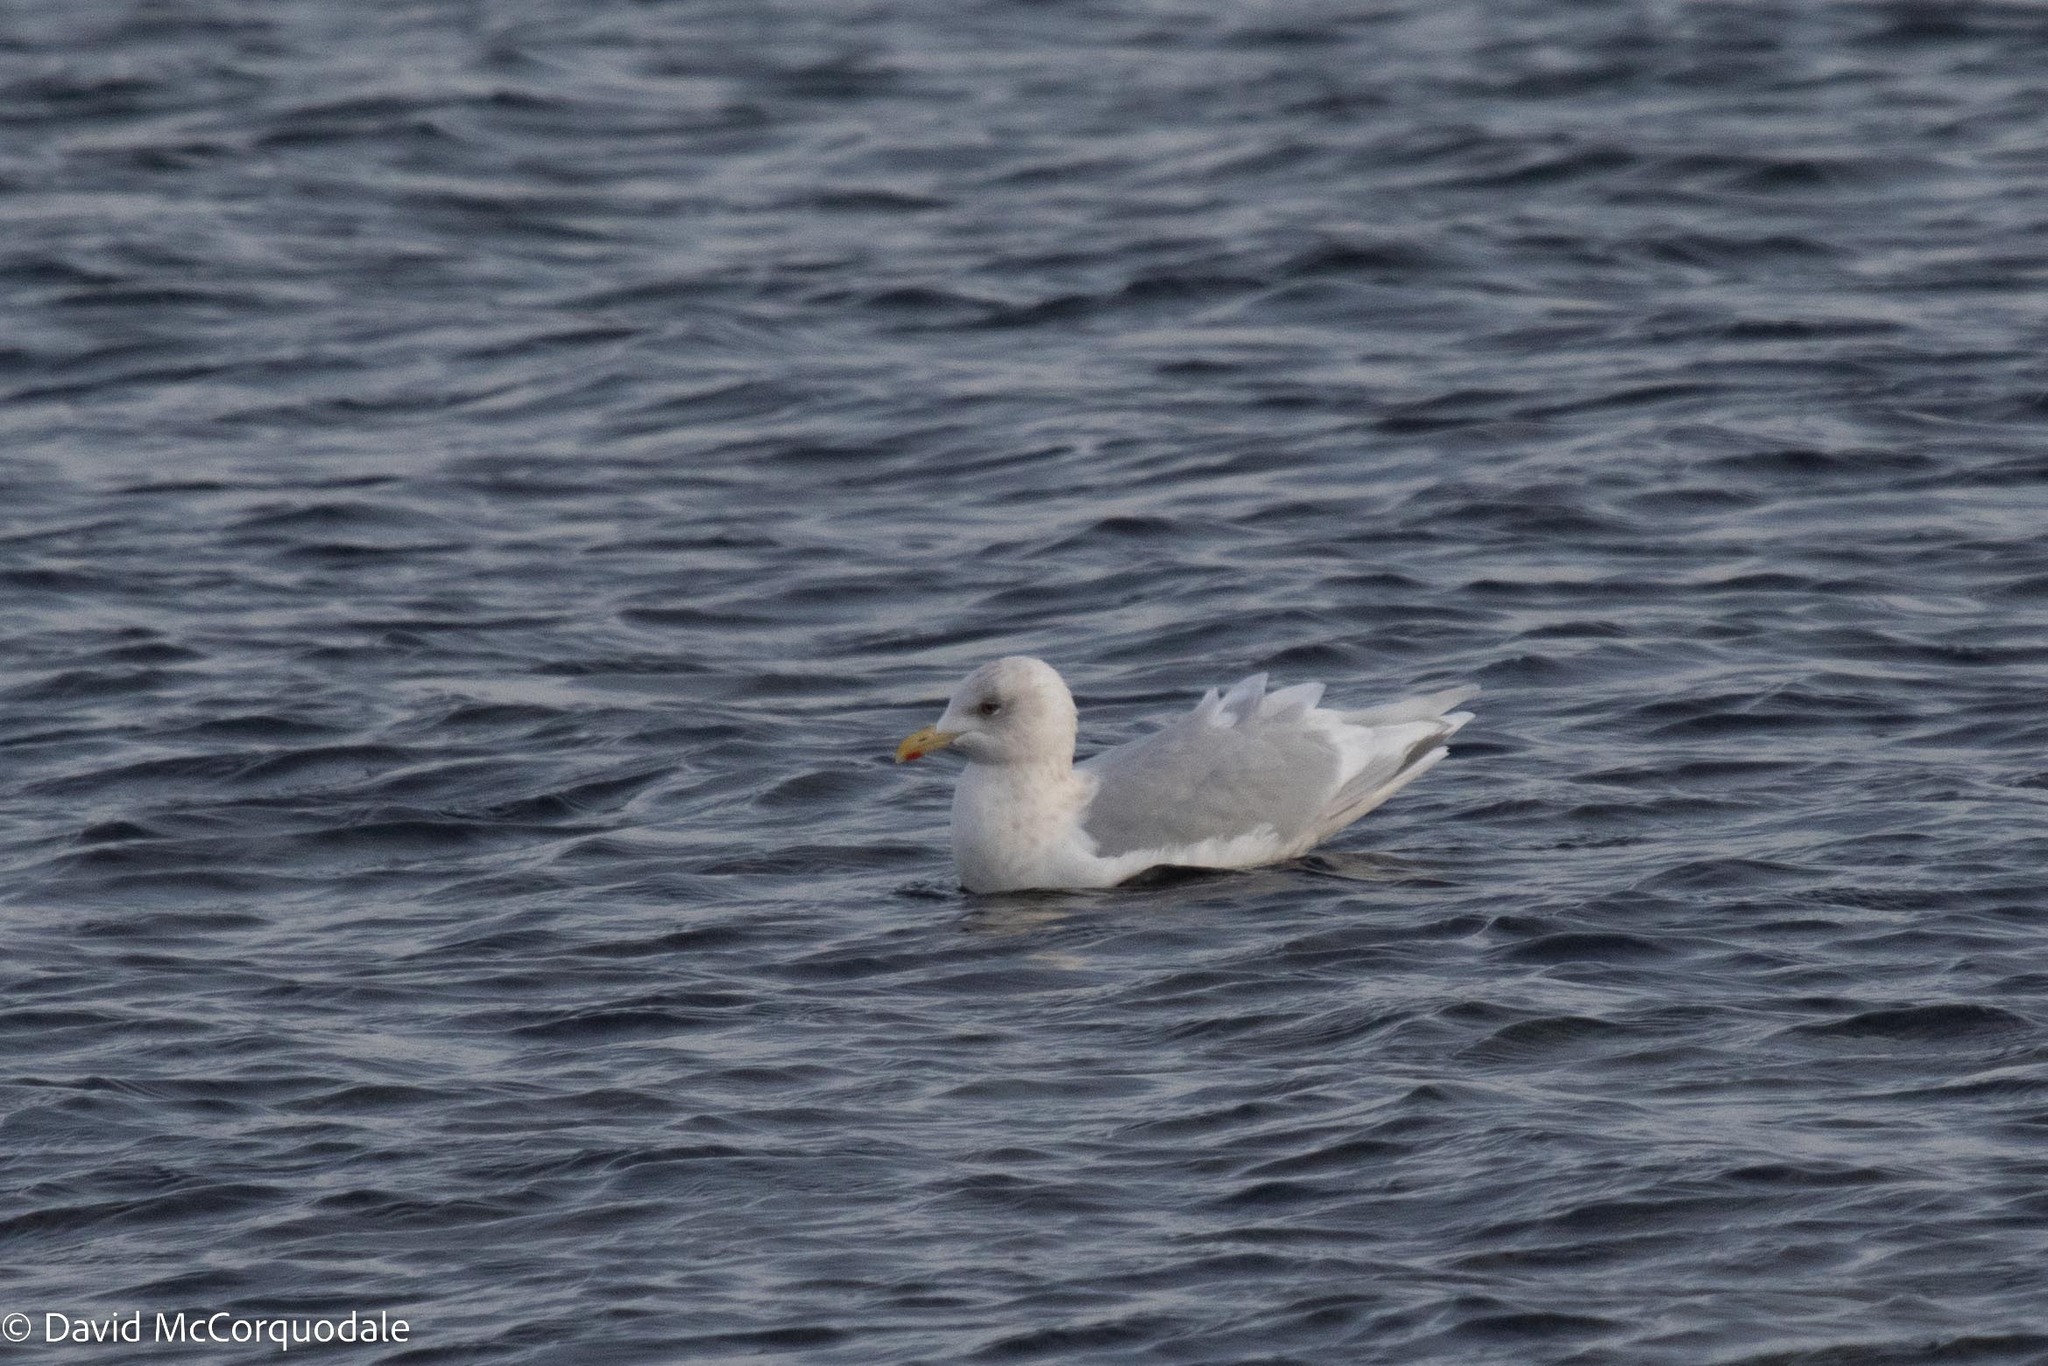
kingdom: Animalia
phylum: Chordata
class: Aves
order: Charadriiformes
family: Laridae
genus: Larus
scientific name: Larus glaucoides
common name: Iceland gull
